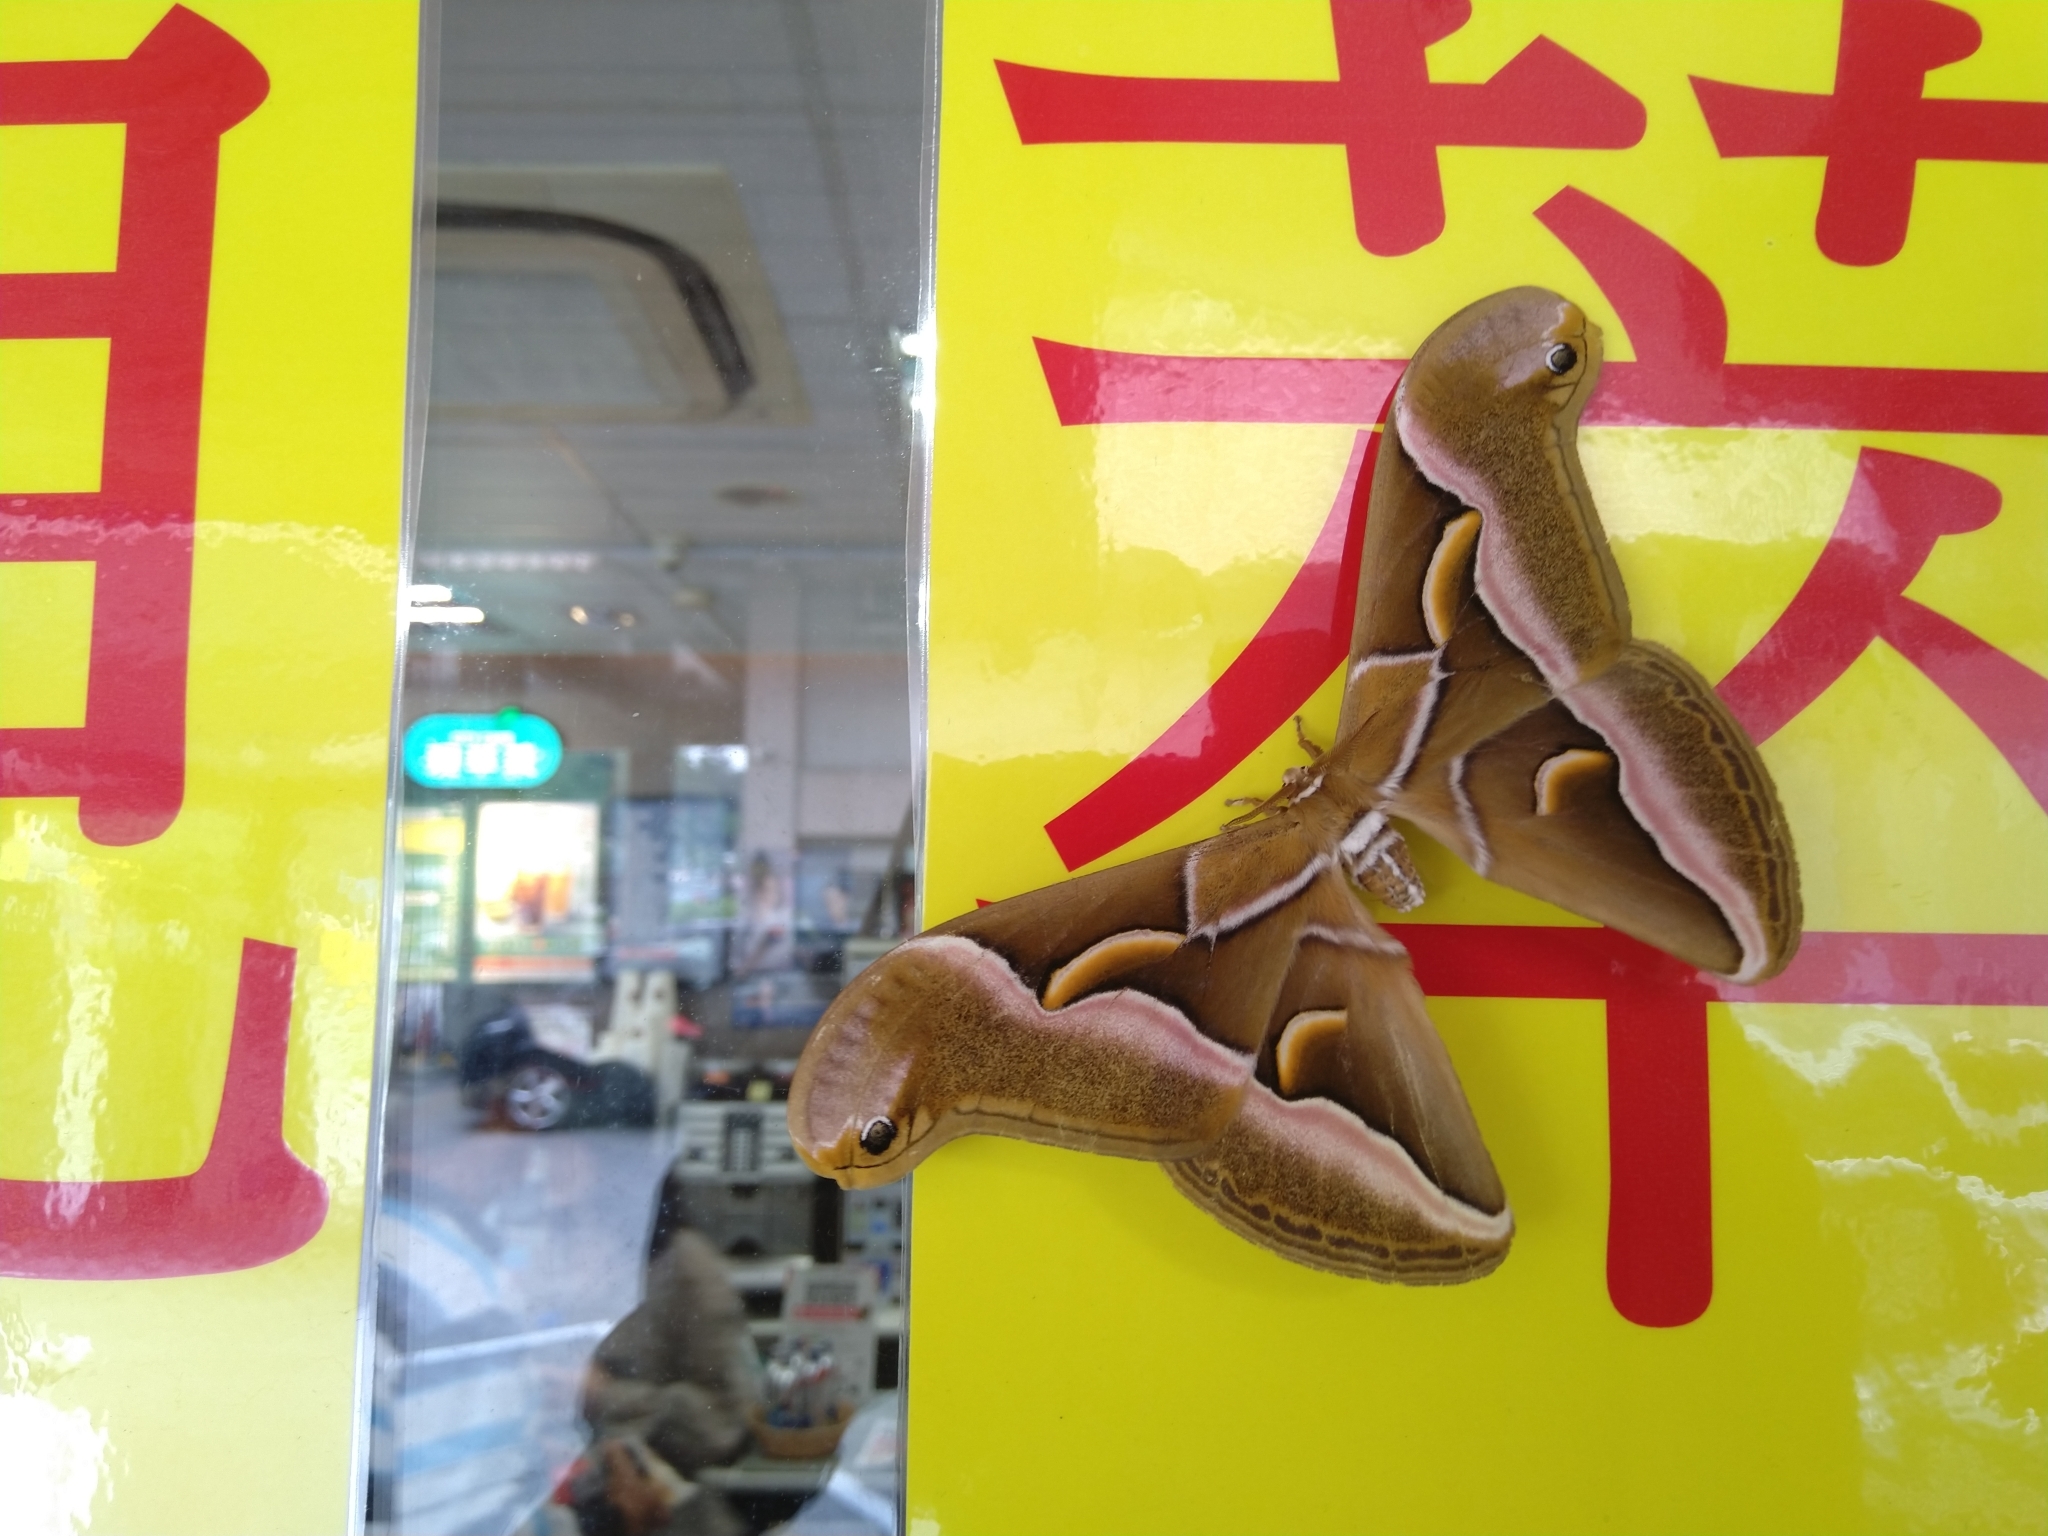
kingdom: Animalia
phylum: Arthropoda
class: Insecta
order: Lepidoptera
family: Saturniidae
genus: Samia
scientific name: Samia wangi
